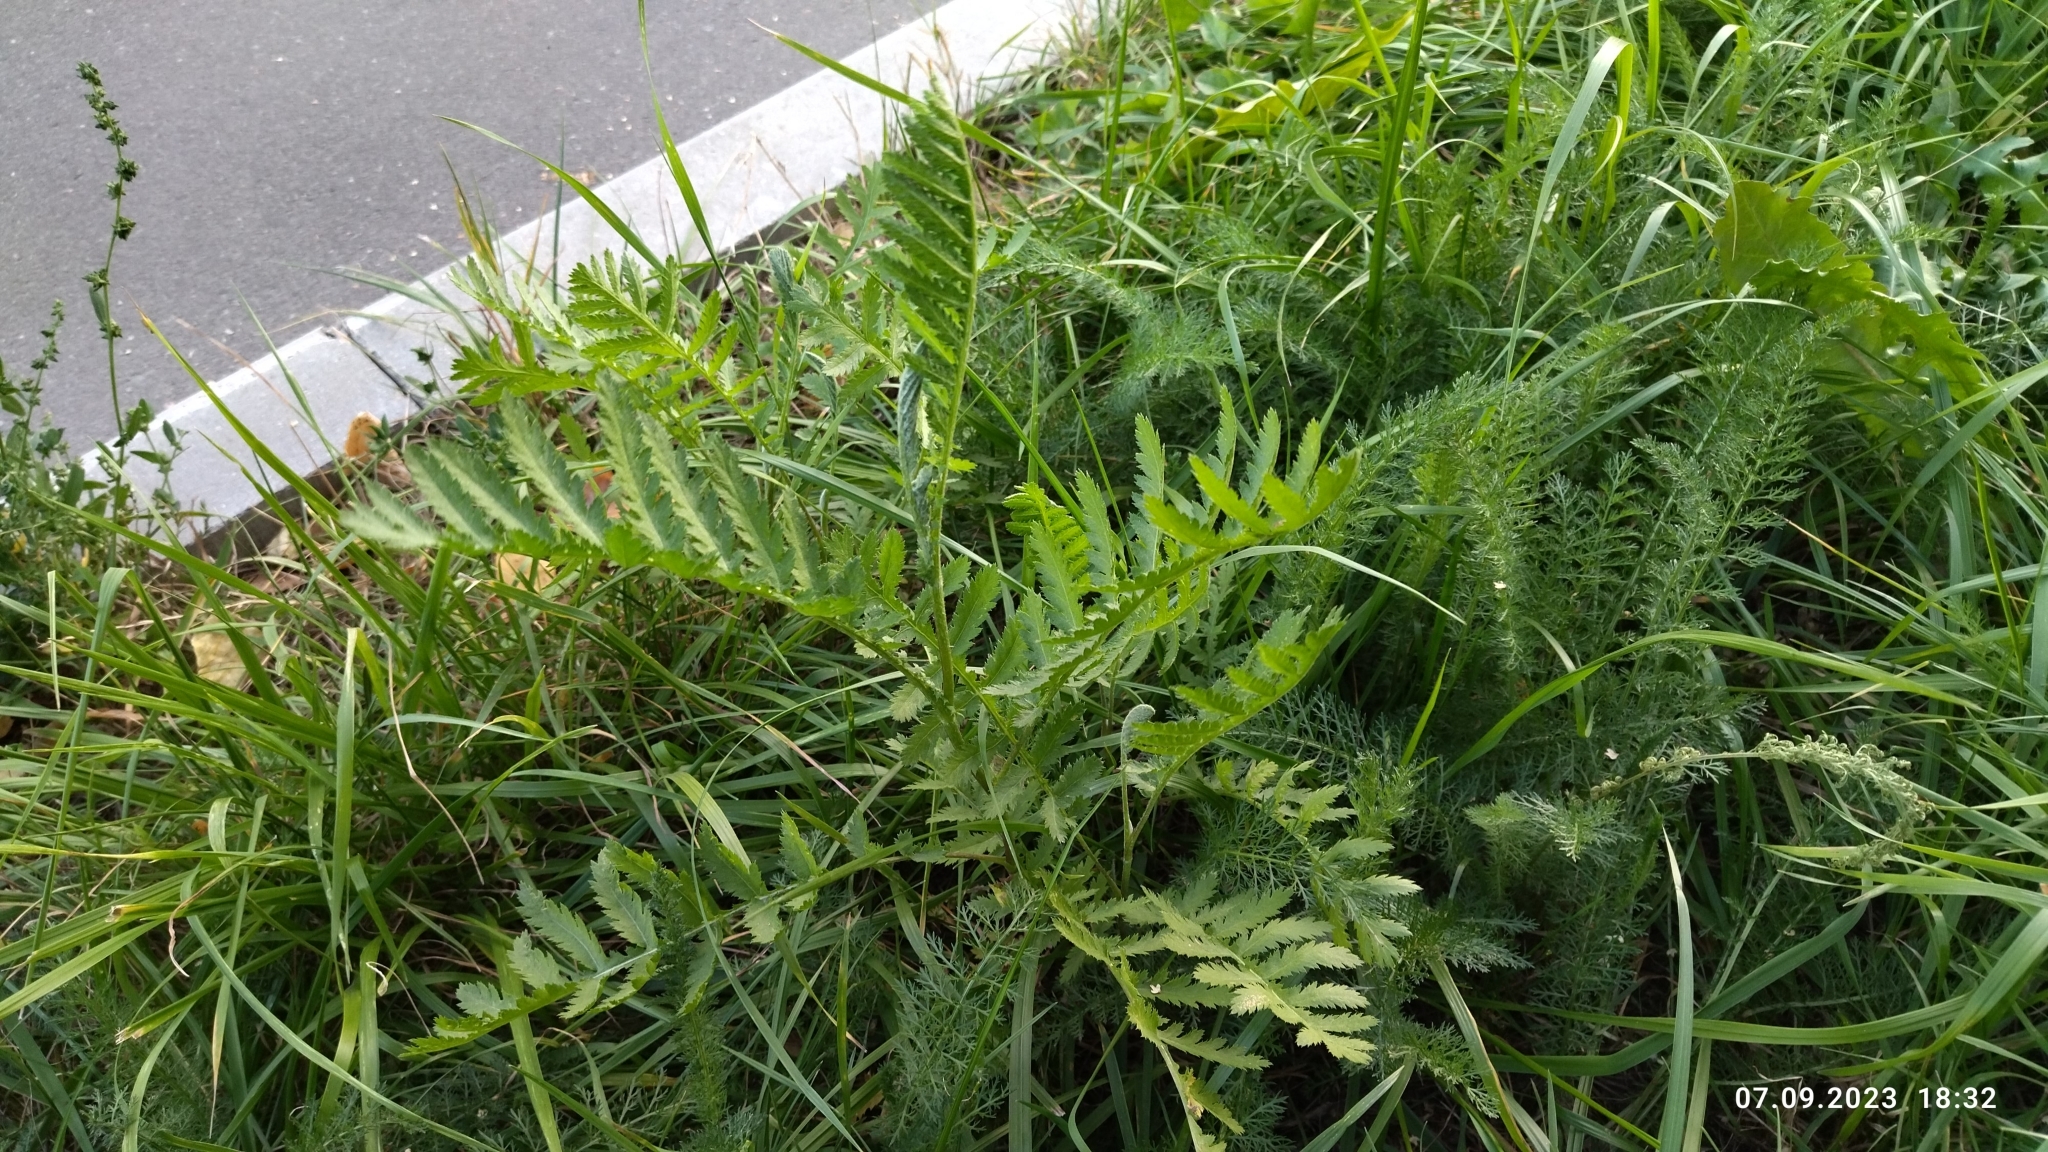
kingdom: Plantae
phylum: Tracheophyta
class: Magnoliopsida
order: Asterales
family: Asteraceae
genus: Tanacetum
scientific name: Tanacetum vulgare
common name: Common tansy
